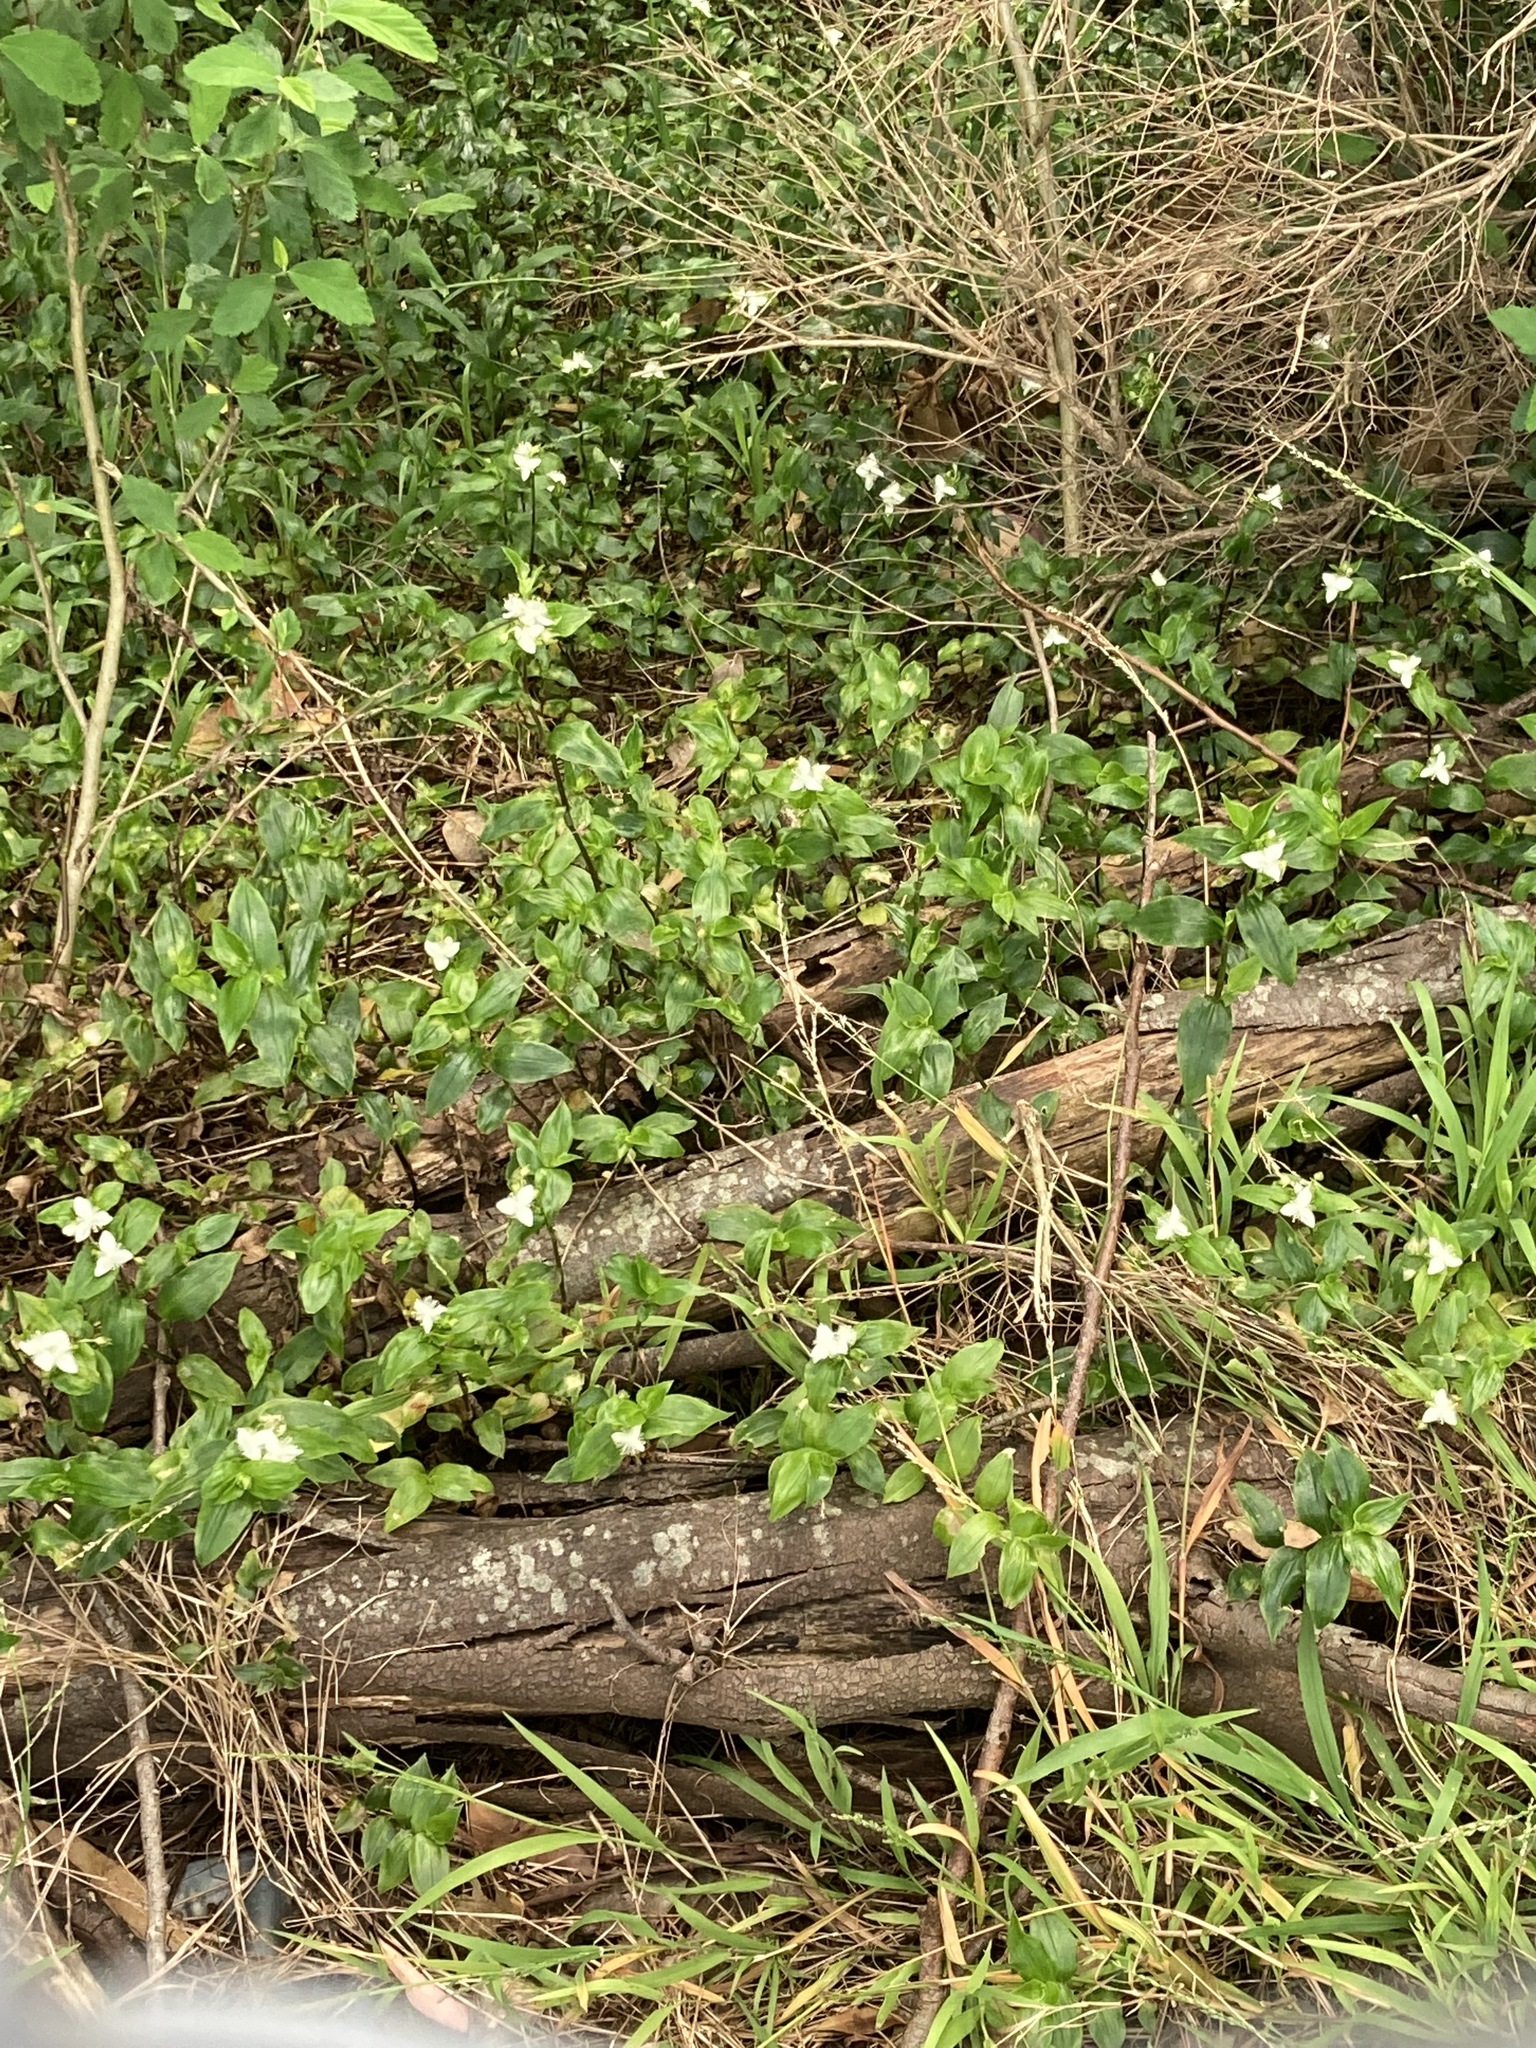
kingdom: Plantae
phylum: Tracheophyta
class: Liliopsida
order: Commelinales
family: Commelinaceae
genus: Tradescantia
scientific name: Tradescantia fluminensis
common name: Wandering-jew
